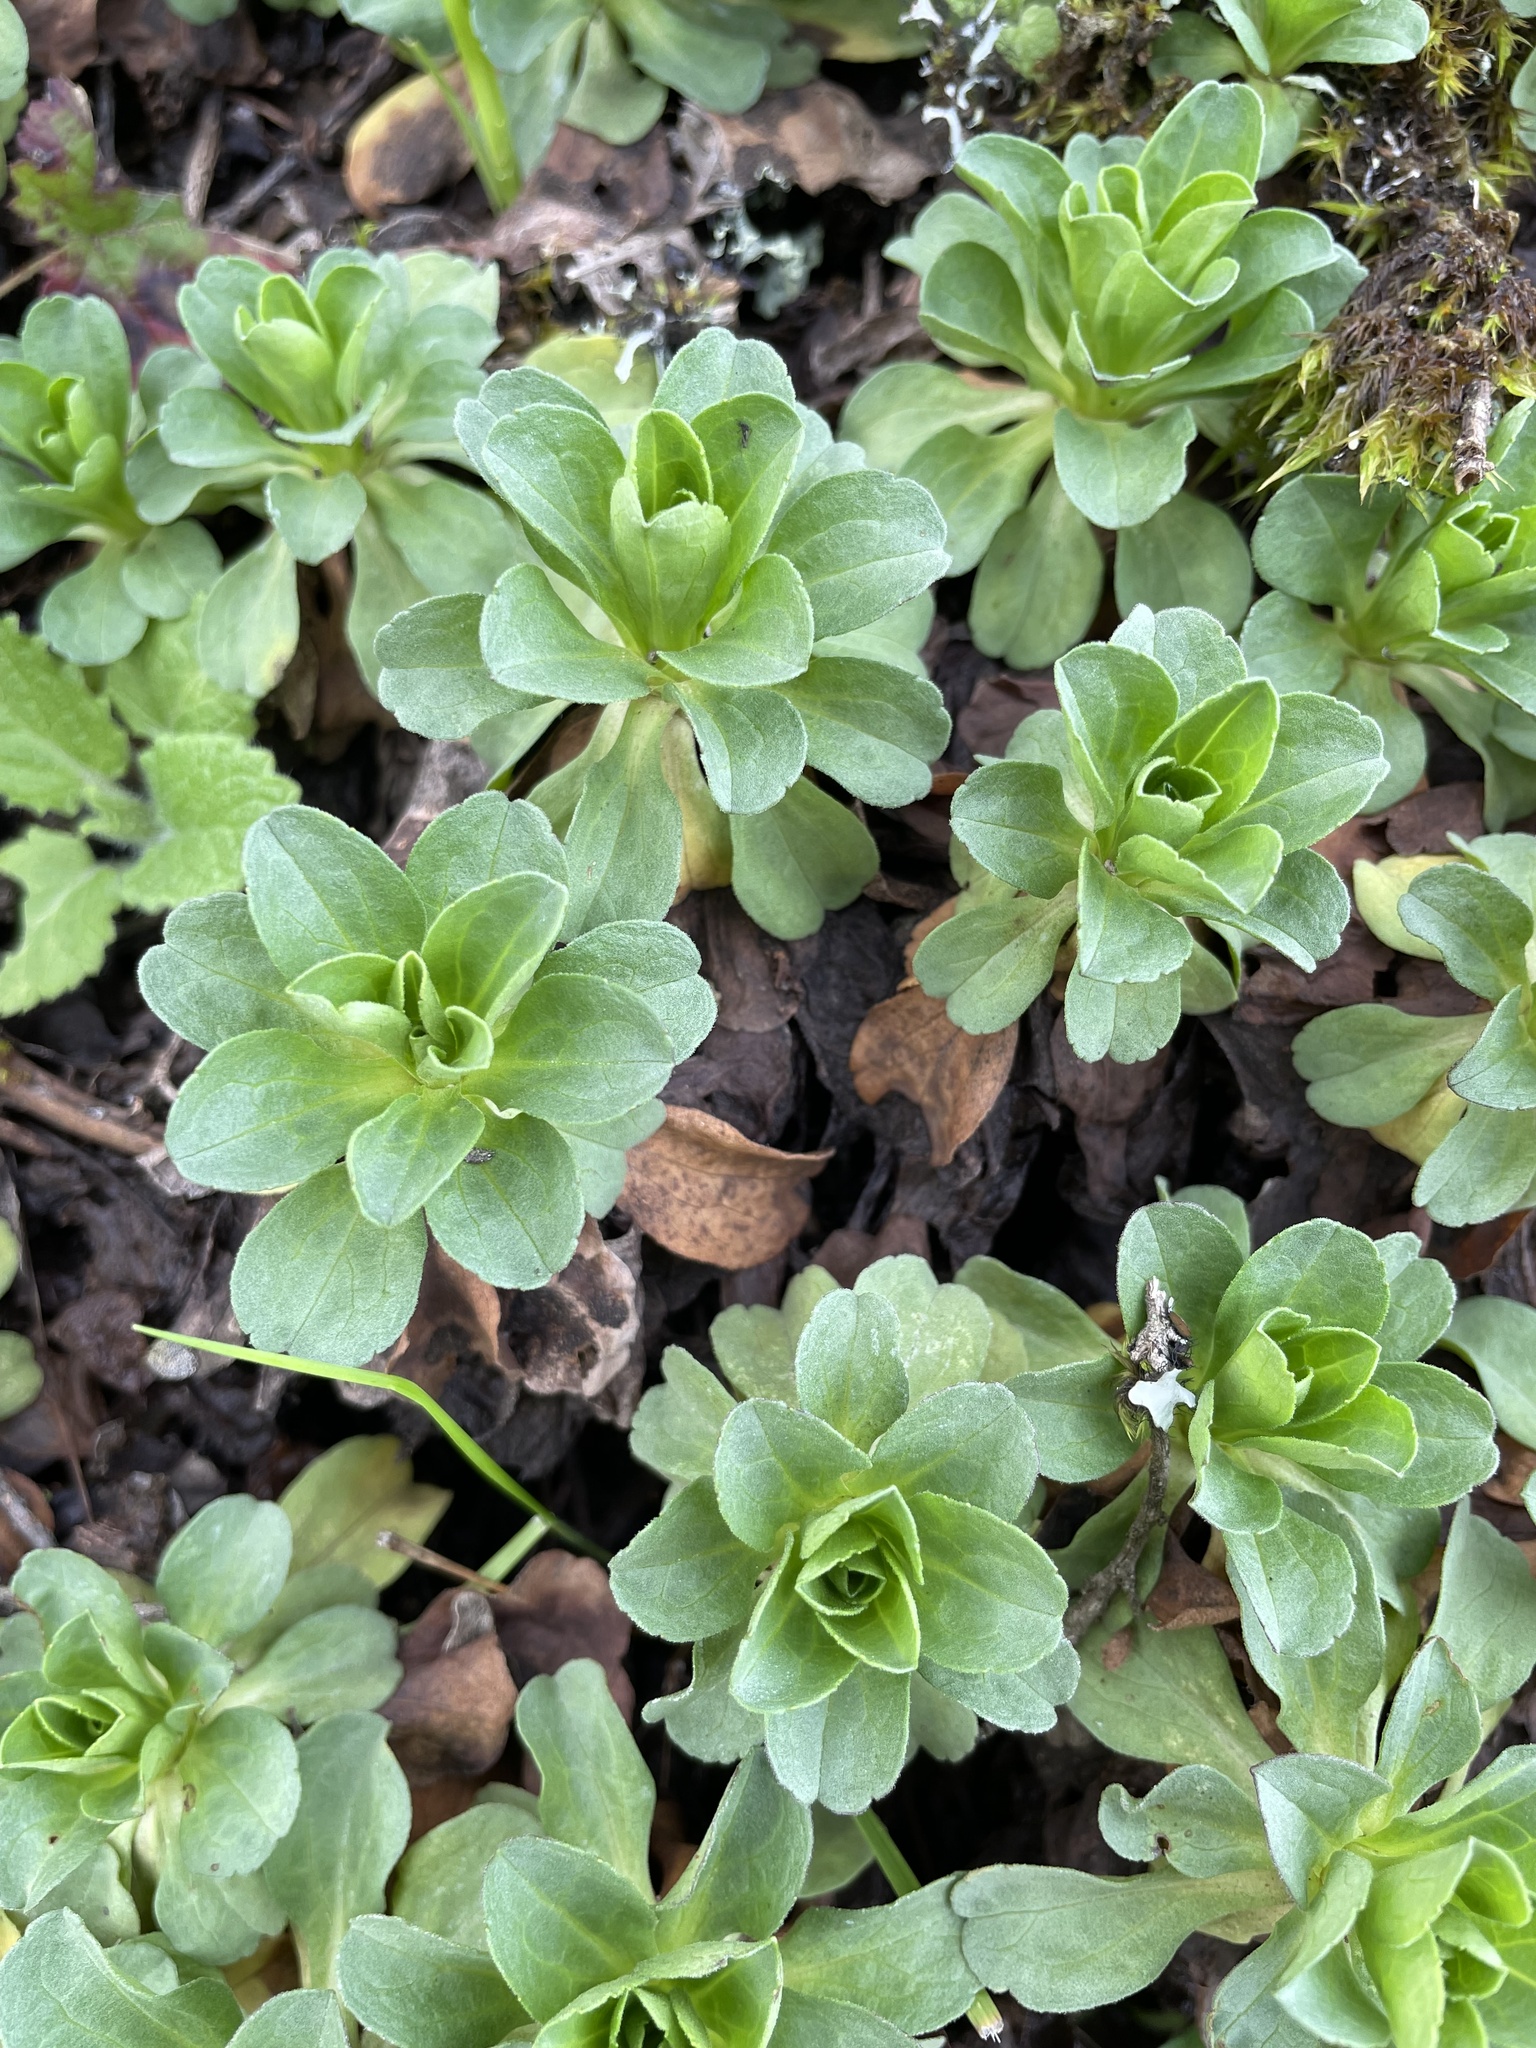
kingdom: Plantae
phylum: Tracheophyta
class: Magnoliopsida
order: Asterales
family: Asteraceae
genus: Erigeron
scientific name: Erigeron glaucus
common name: Seaside daisy
